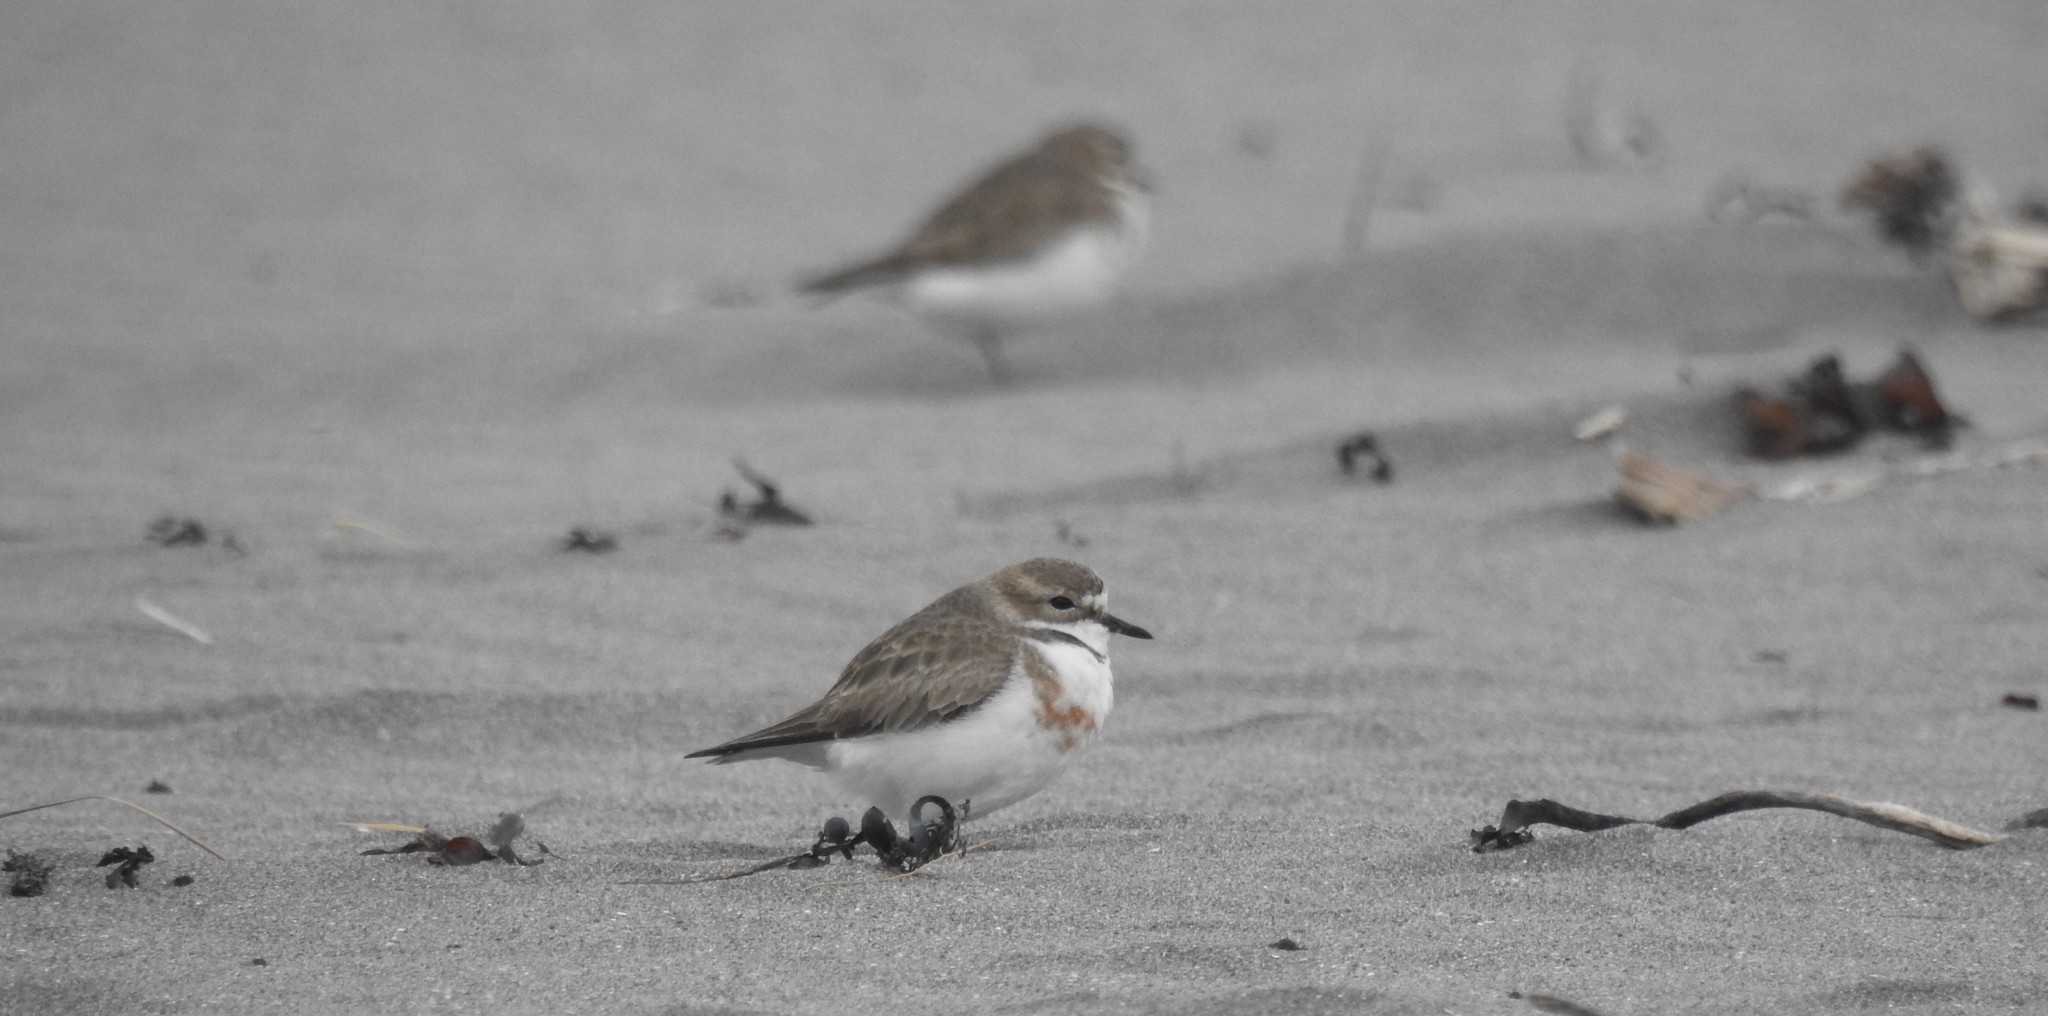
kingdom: Animalia
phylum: Chordata
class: Aves
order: Charadriiformes
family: Charadriidae
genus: Anarhynchus
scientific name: Anarhynchus
